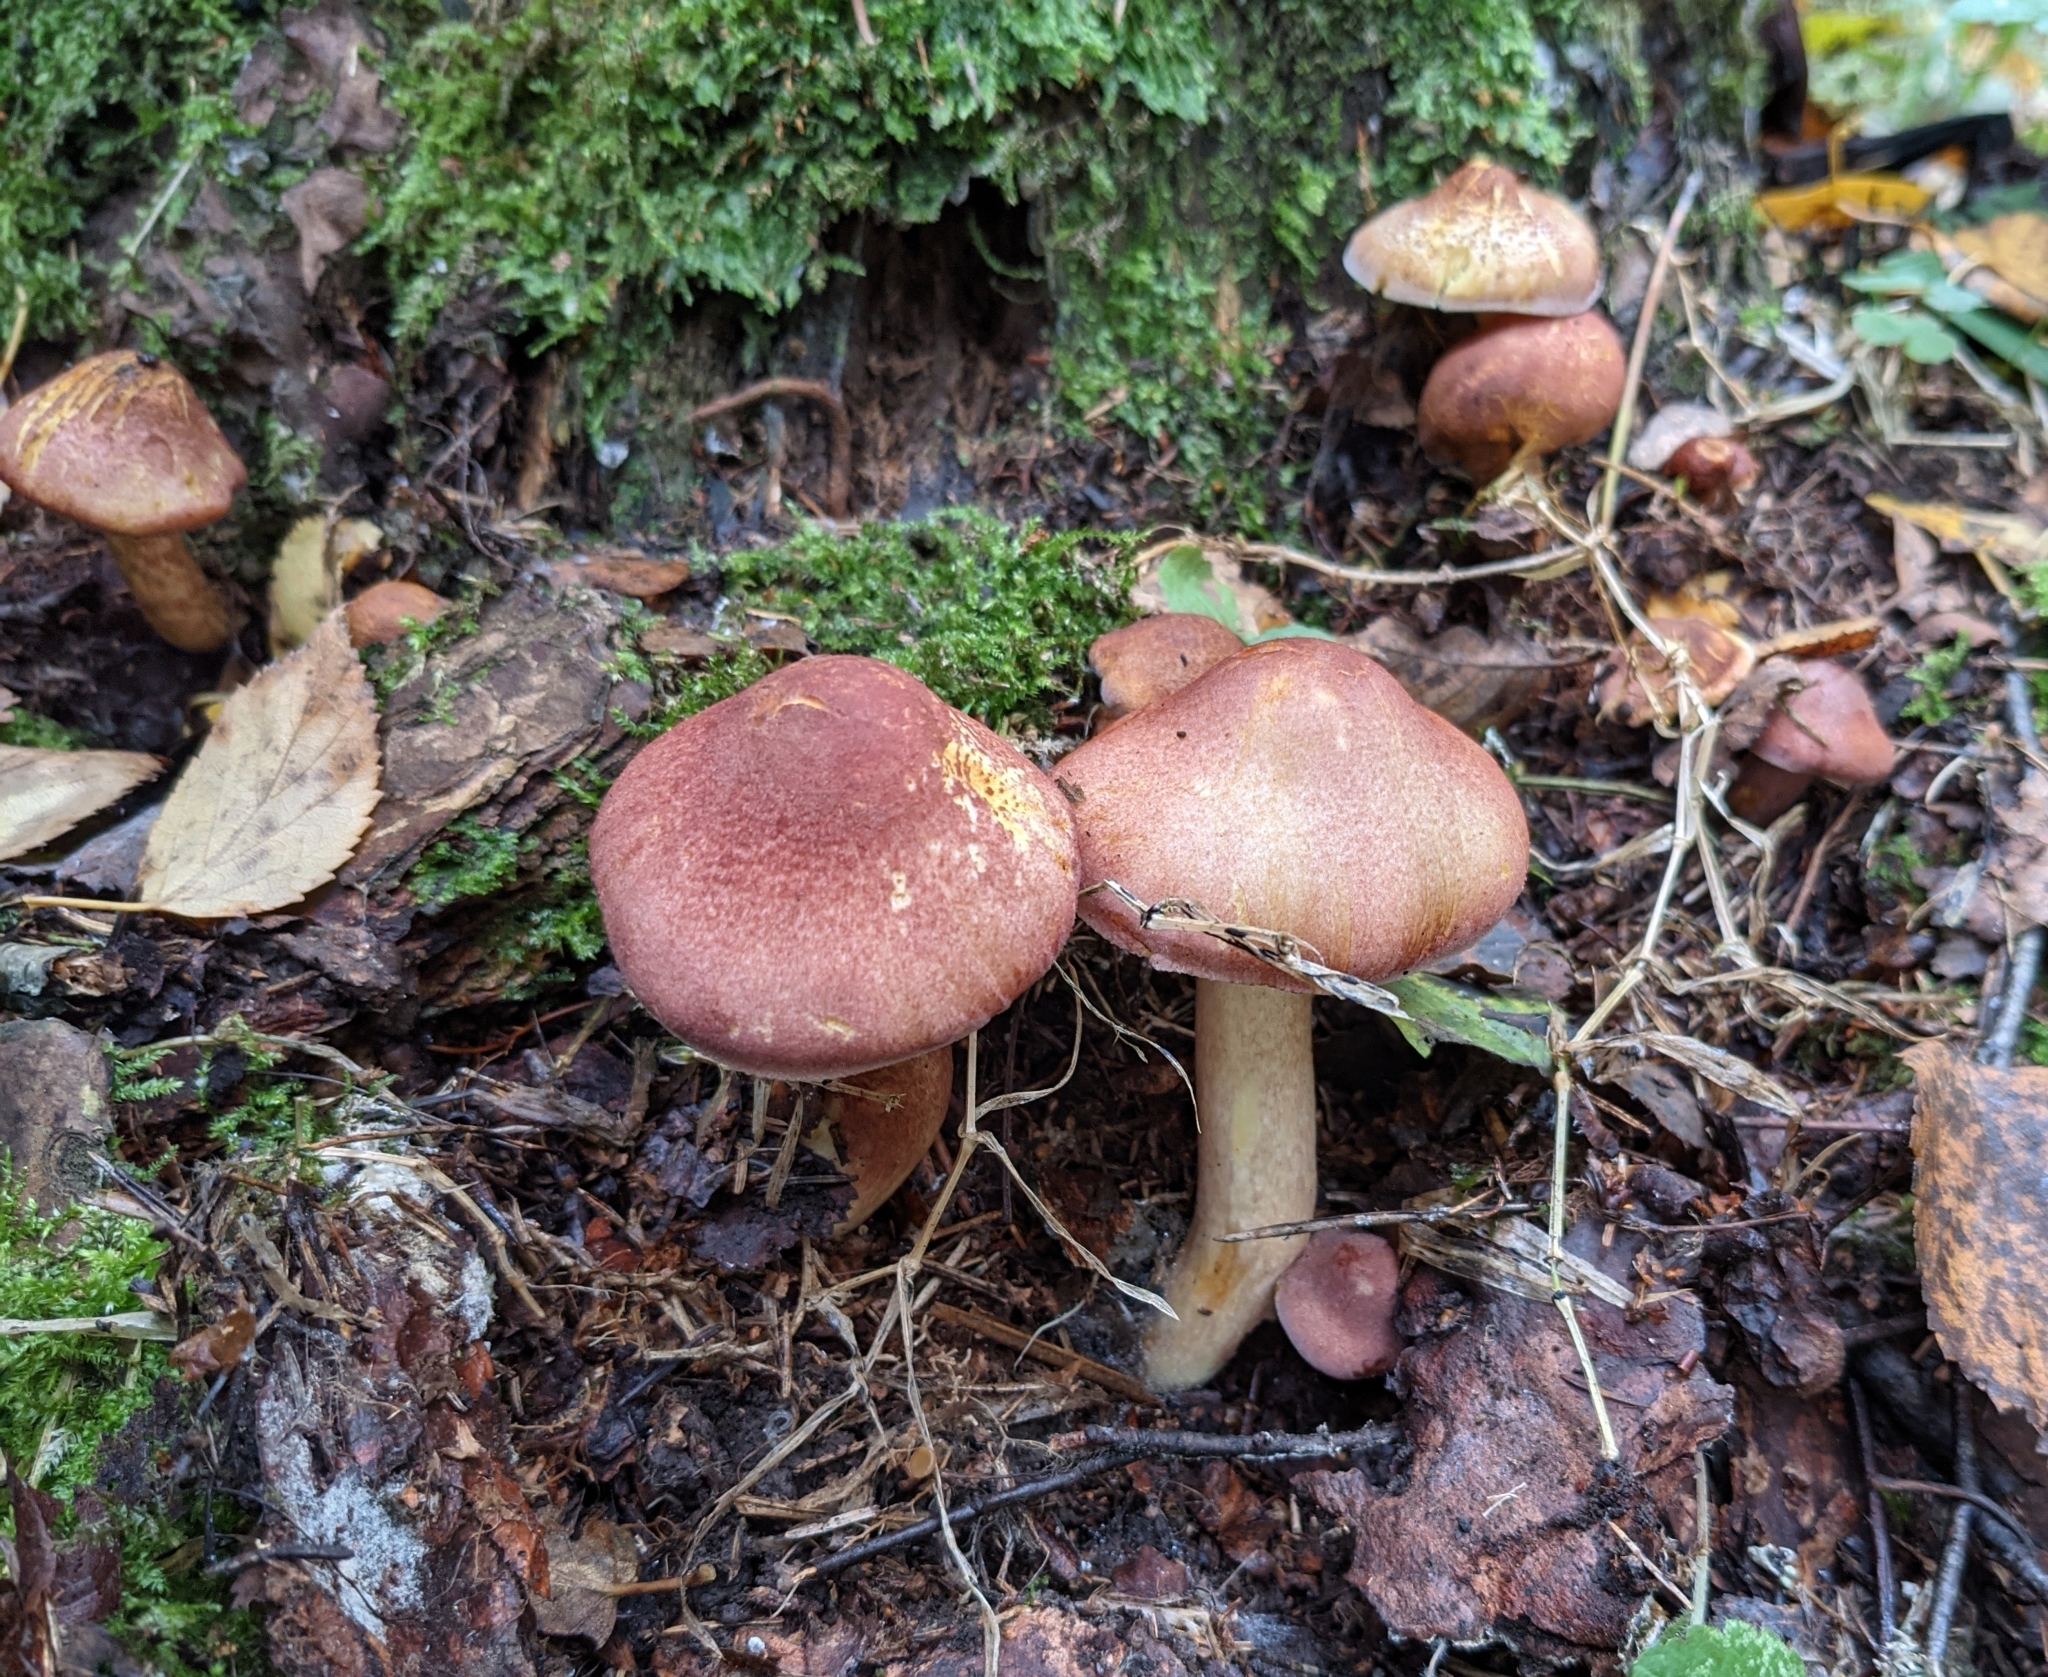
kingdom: Fungi
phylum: Basidiomycota
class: Agaricomycetes
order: Agaricales
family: Tricholomataceae
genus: Tricholomopsis
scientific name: Tricholomopsis rutilans
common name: Plums and custard
